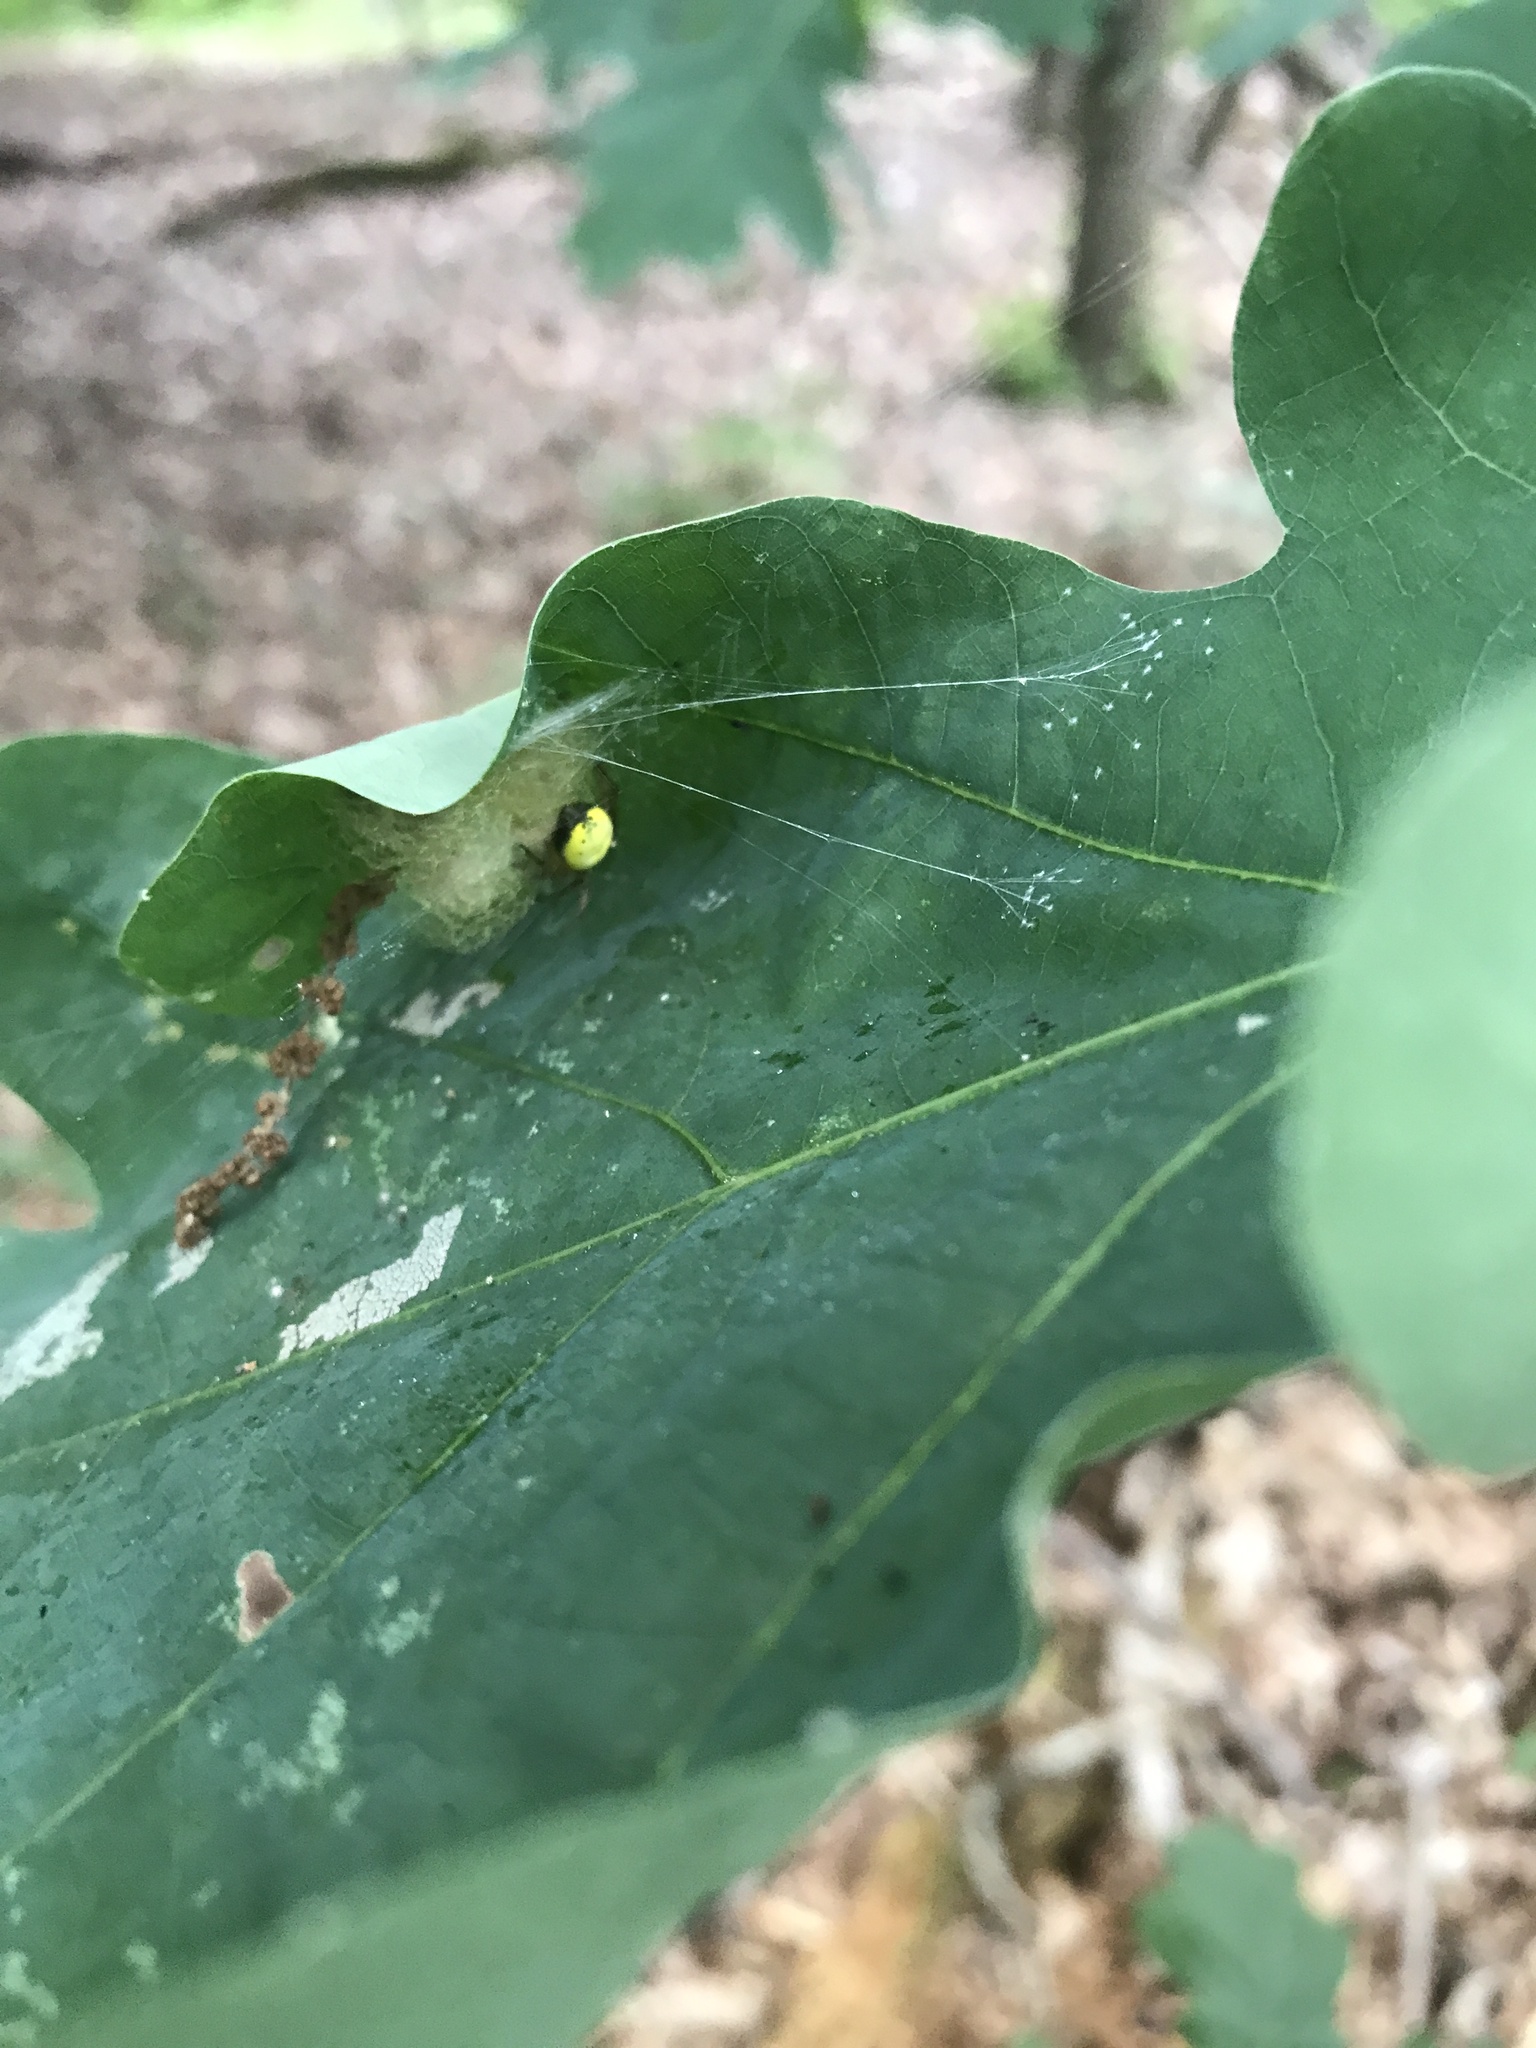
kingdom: Animalia
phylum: Arthropoda
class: Arachnida
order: Araneae
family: Araneidae
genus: Araniella
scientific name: Araniella displicata
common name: Sixspotted orb weaver
